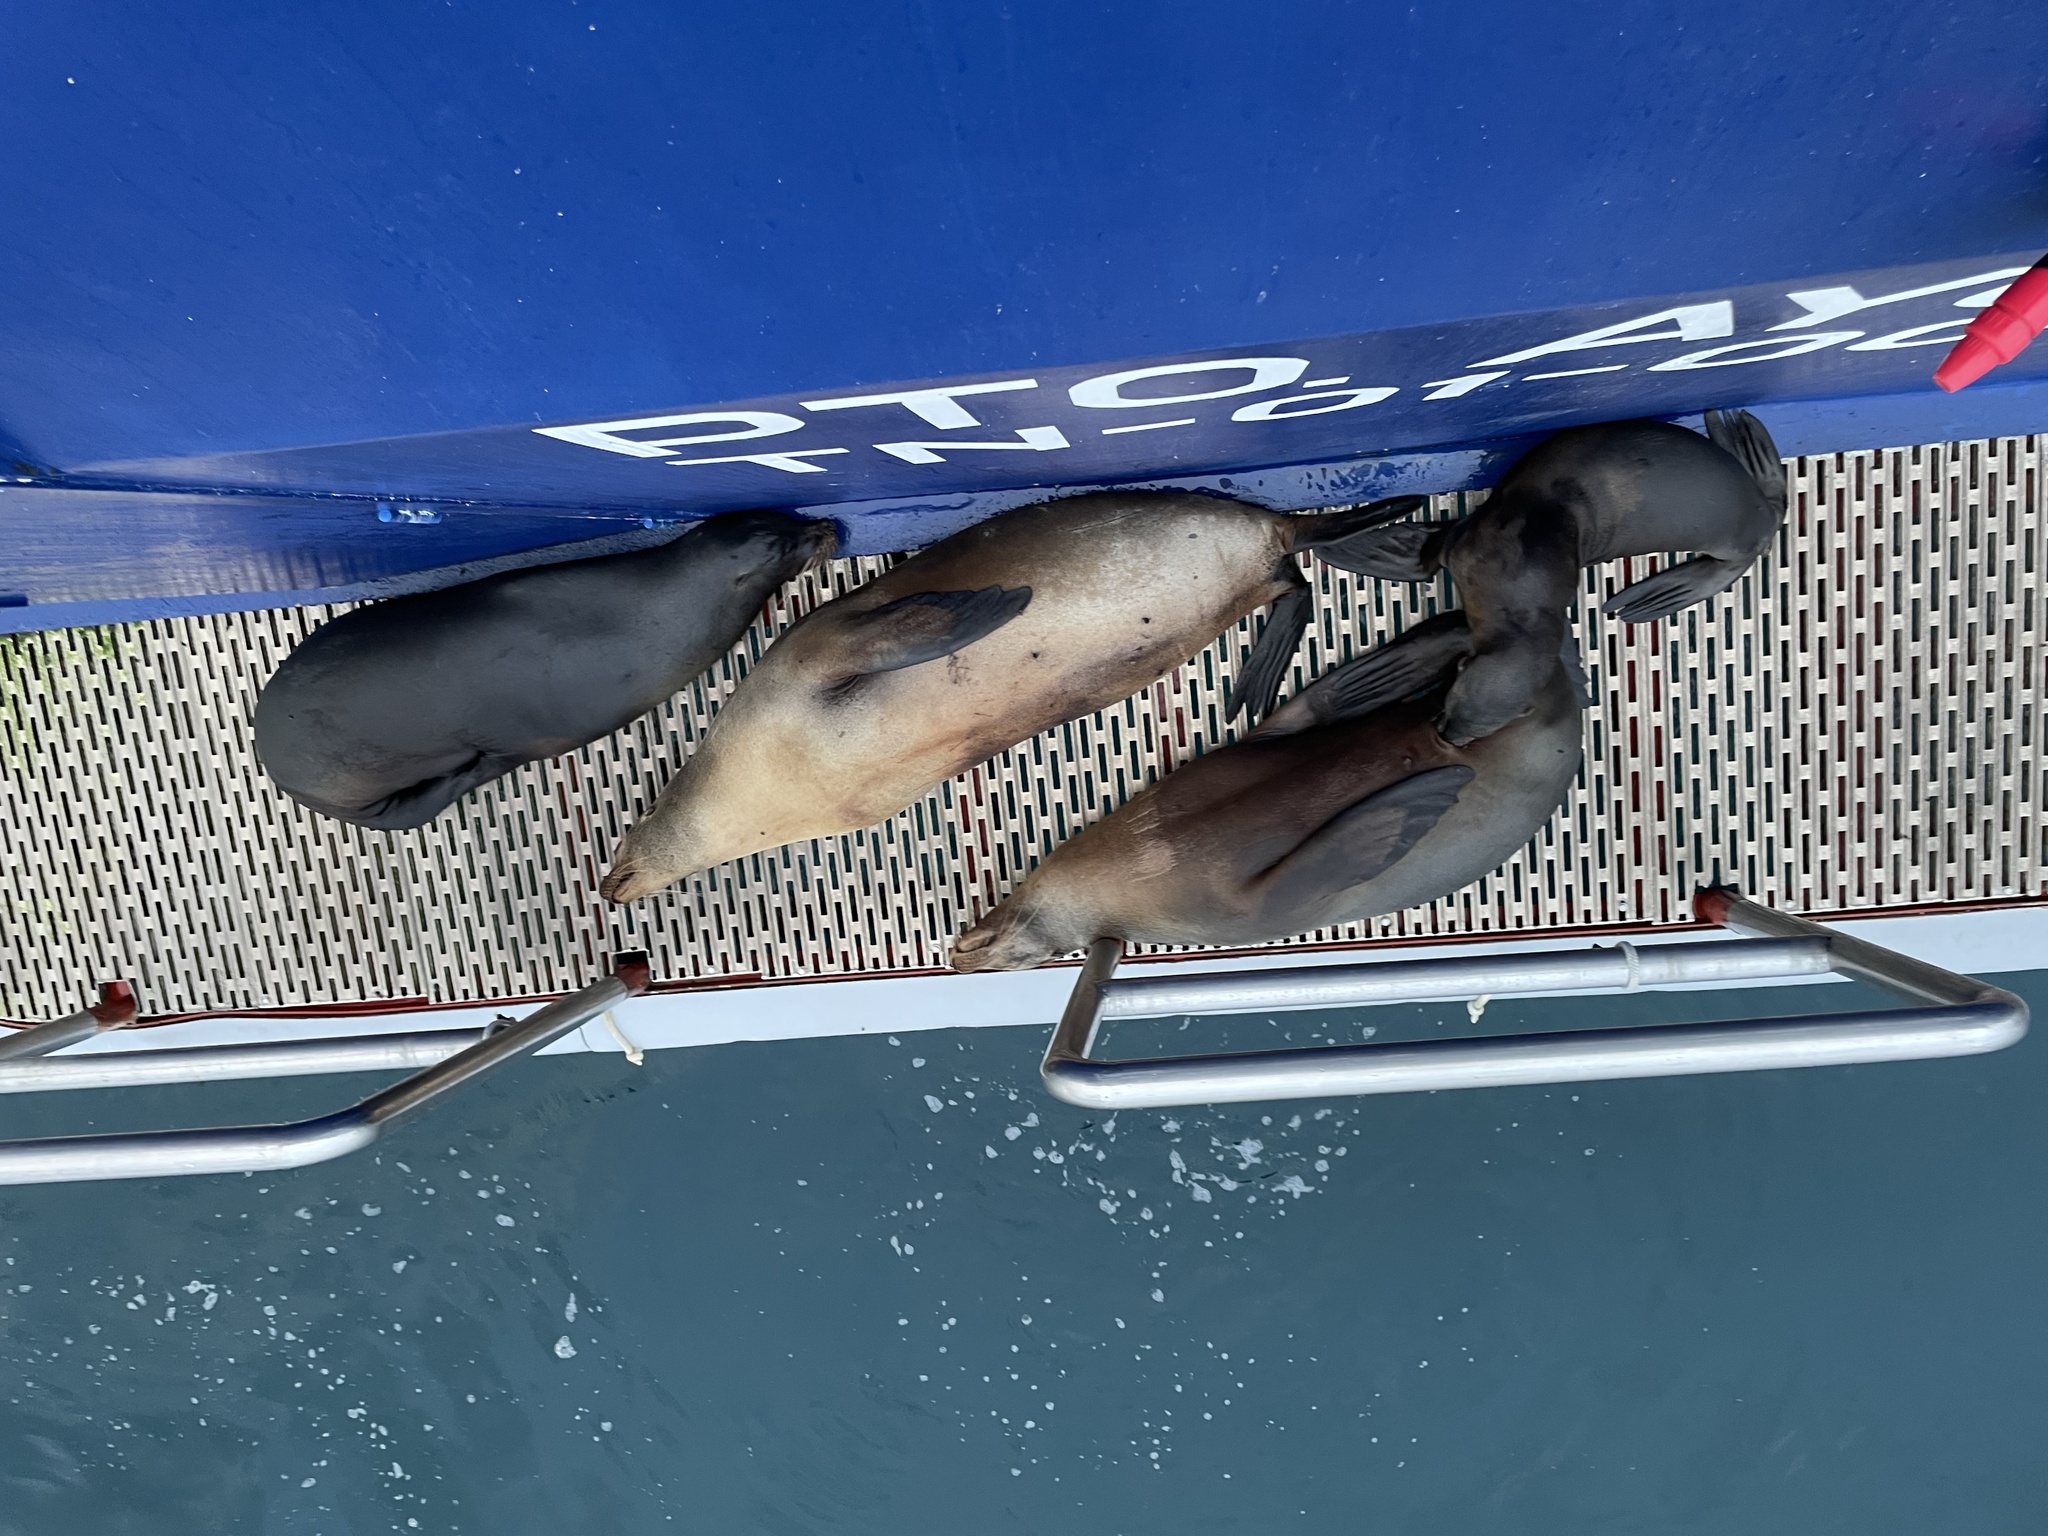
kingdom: Animalia
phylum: Chordata
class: Mammalia
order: Carnivora
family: Otariidae
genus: Zalophus
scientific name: Zalophus wollebaeki
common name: Galapagos sea lion
